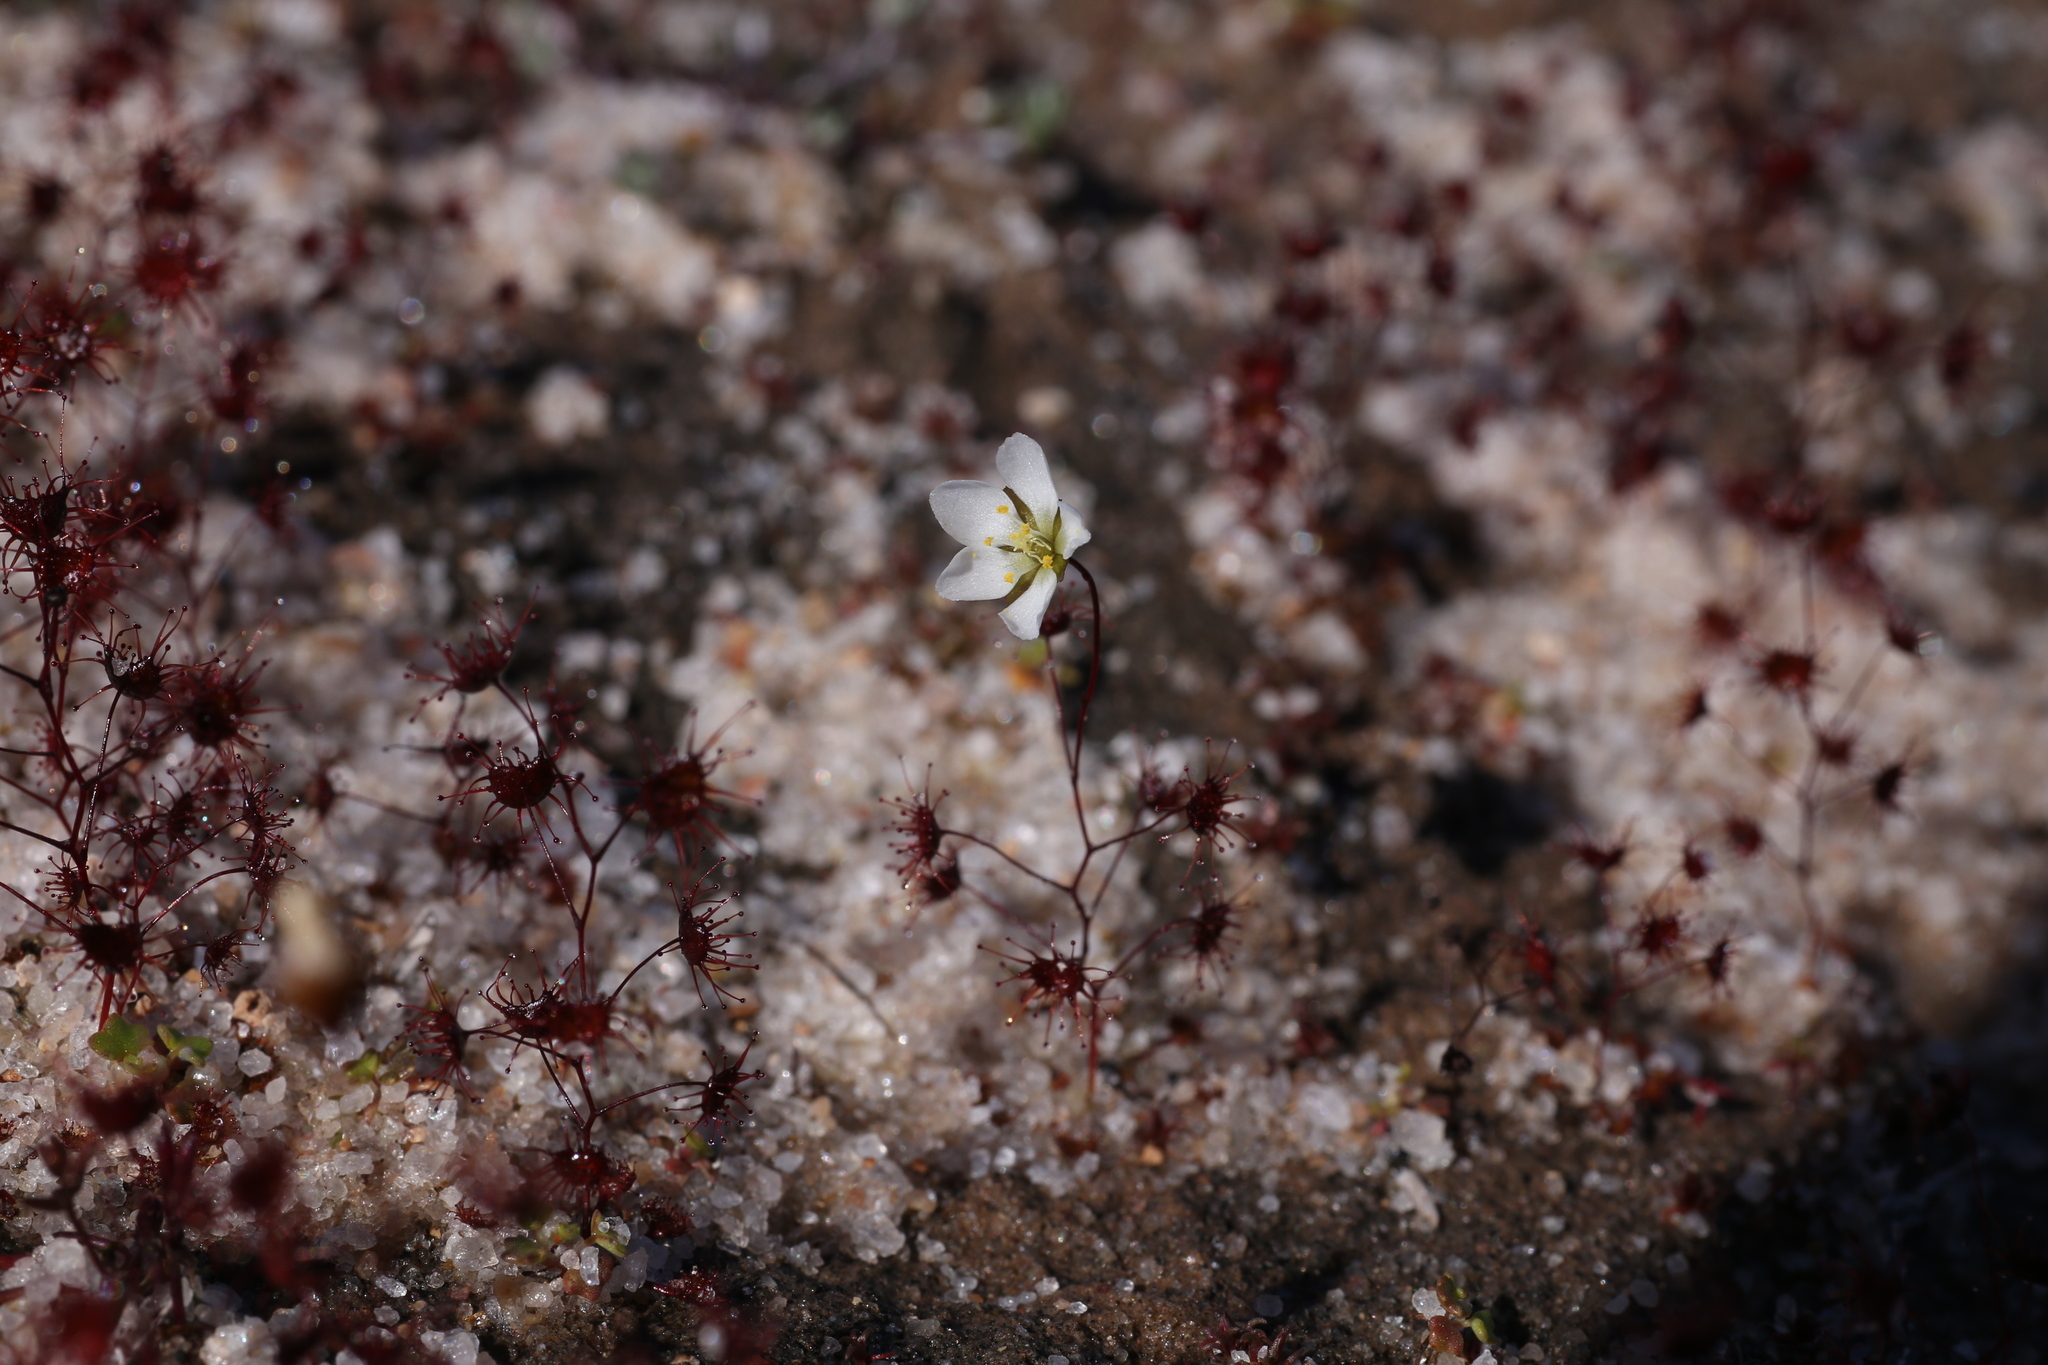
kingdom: Plantae
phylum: Tracheophyta
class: Magnoliopsida
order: Caryophyllales
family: Droseraceae
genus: Drosera
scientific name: Drosera salina
